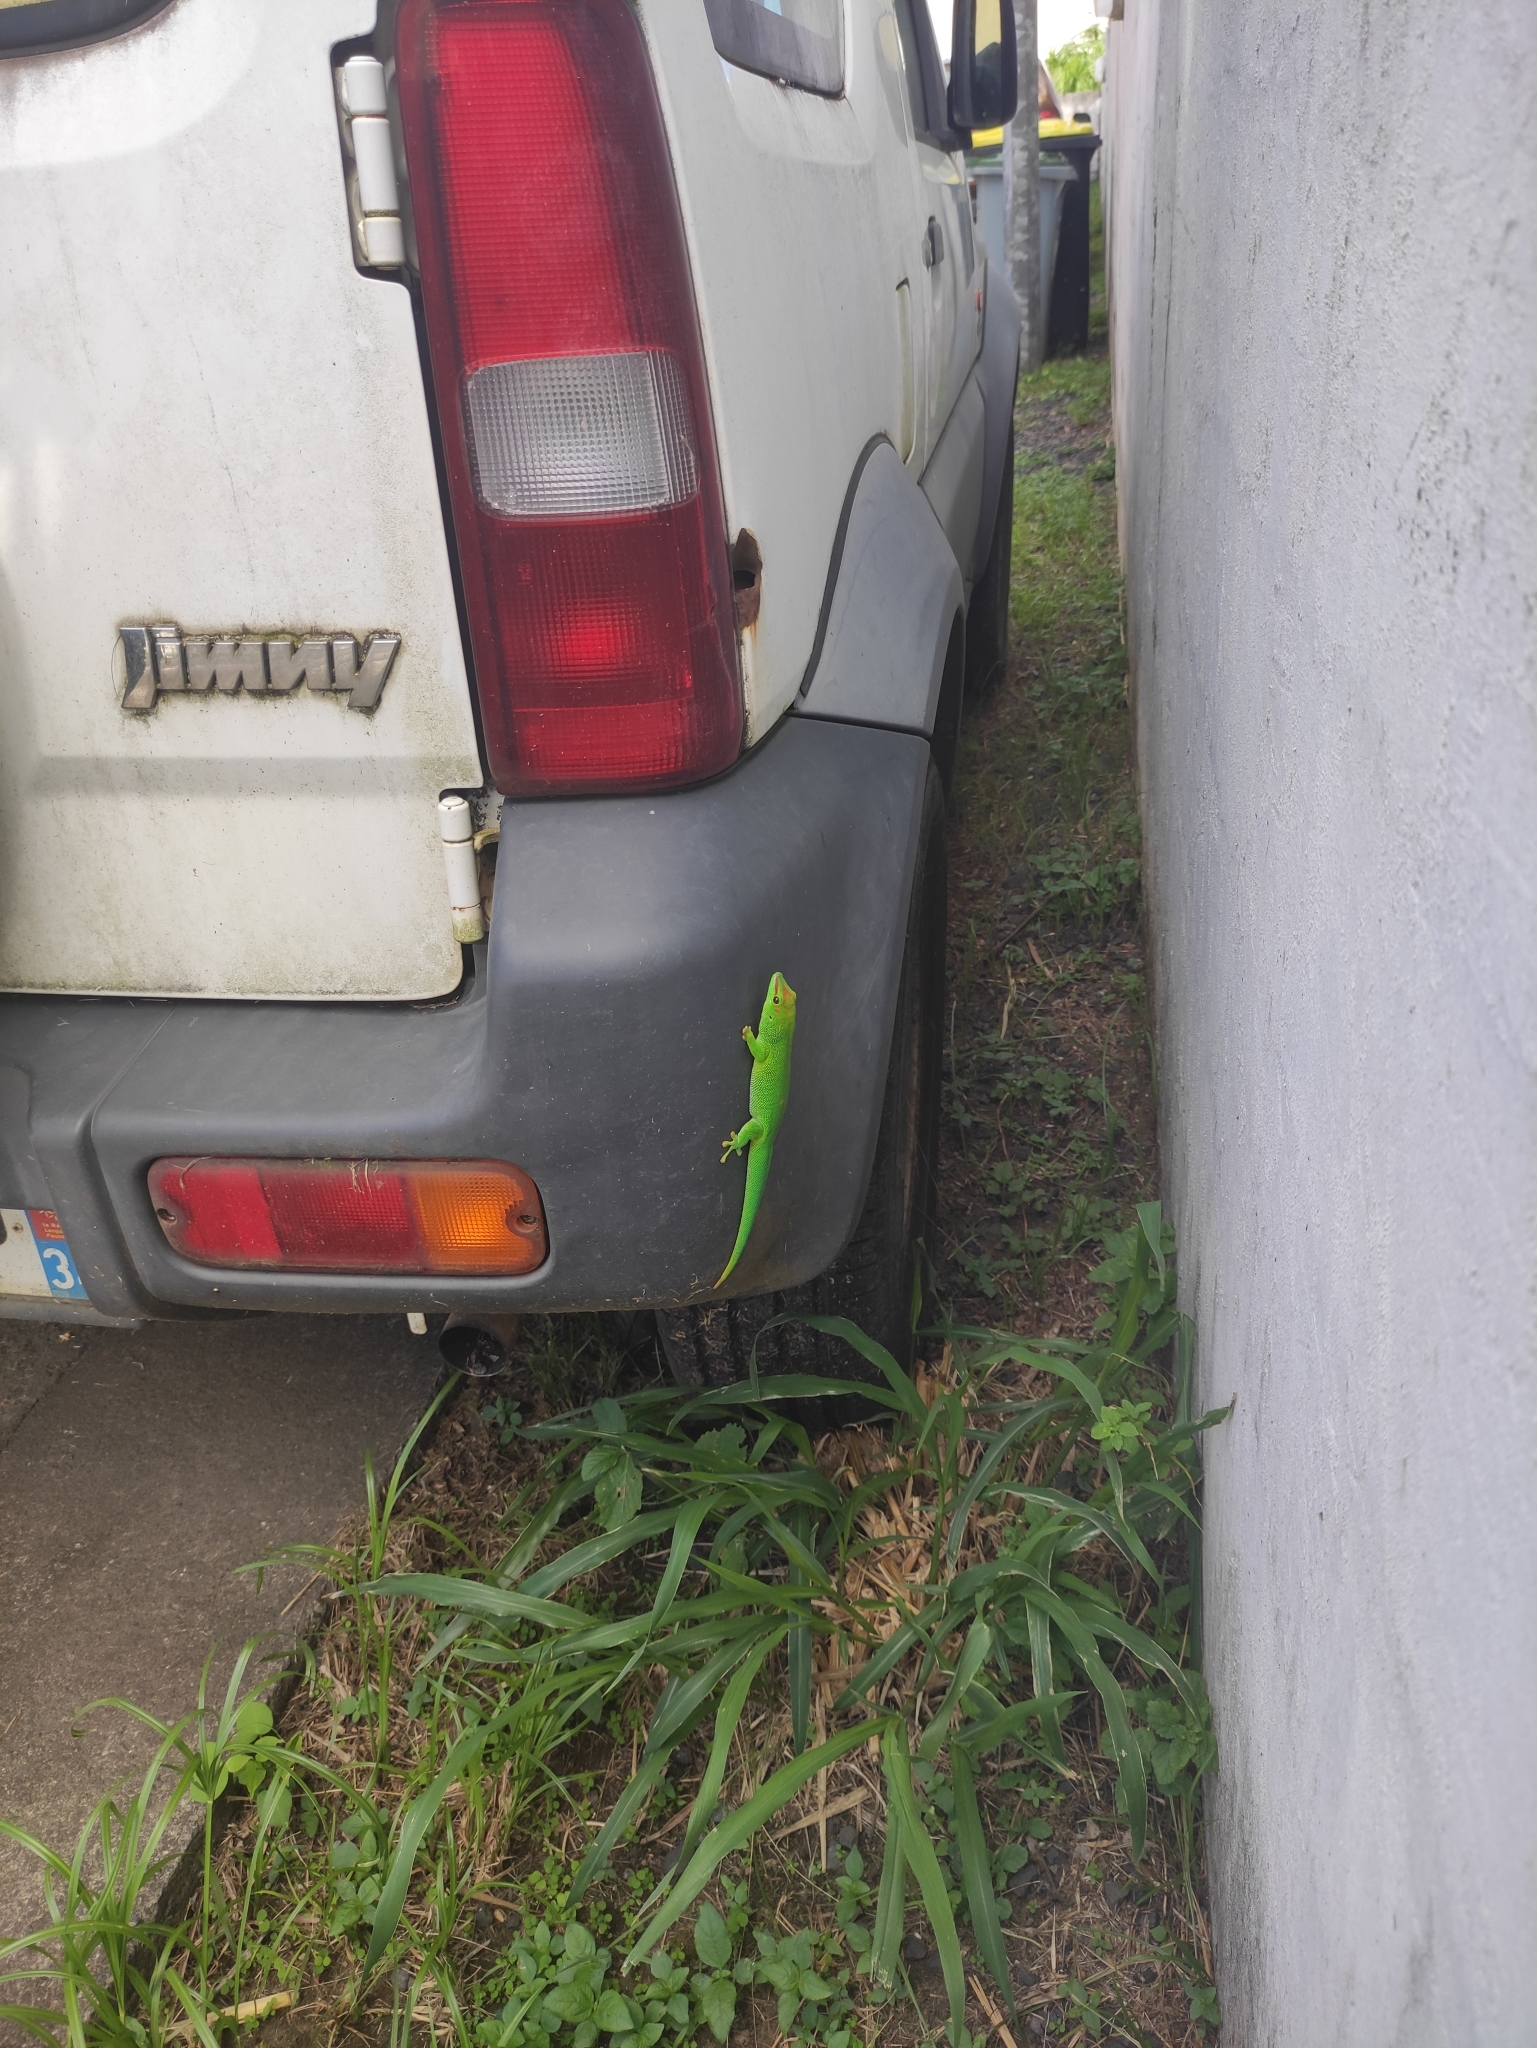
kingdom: Animalia
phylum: Chordata
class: Squamata
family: Gekkonidae
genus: Phelsuma
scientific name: Phelsuma grandis
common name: Madagascar giant day gecko
